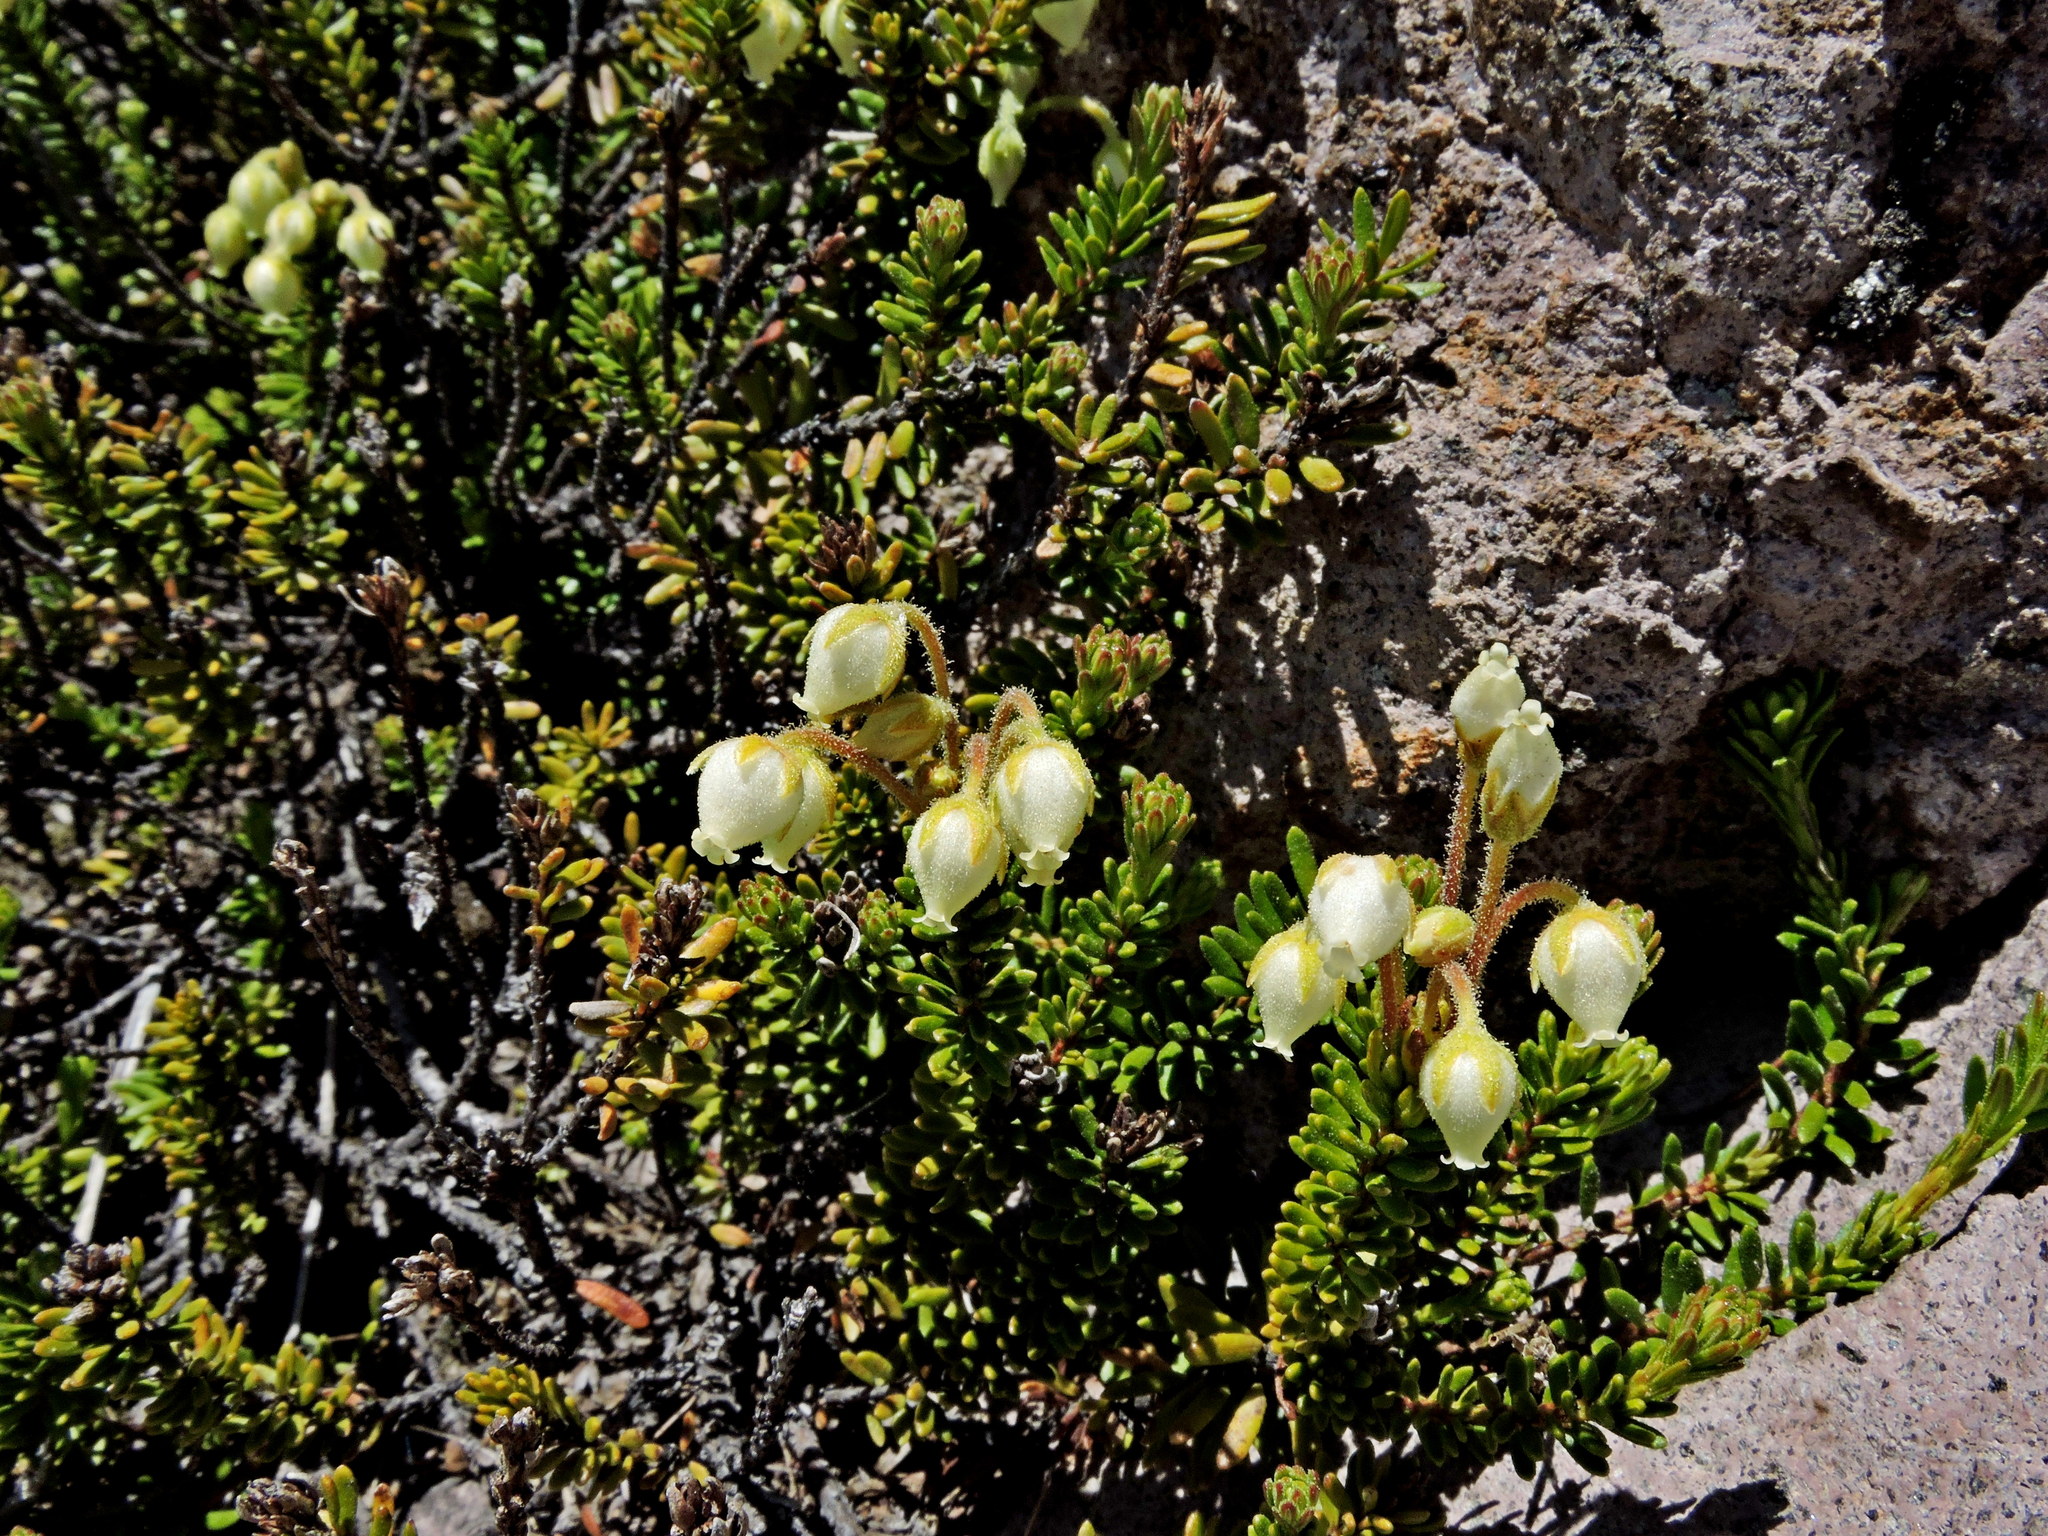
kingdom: Plantae
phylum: Tracheophyta
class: Magnoliopsida
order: Ericales
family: Ericaceae
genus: Phyllodoce
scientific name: Phyllodoce glanduliflora
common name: Cream mountain heather
